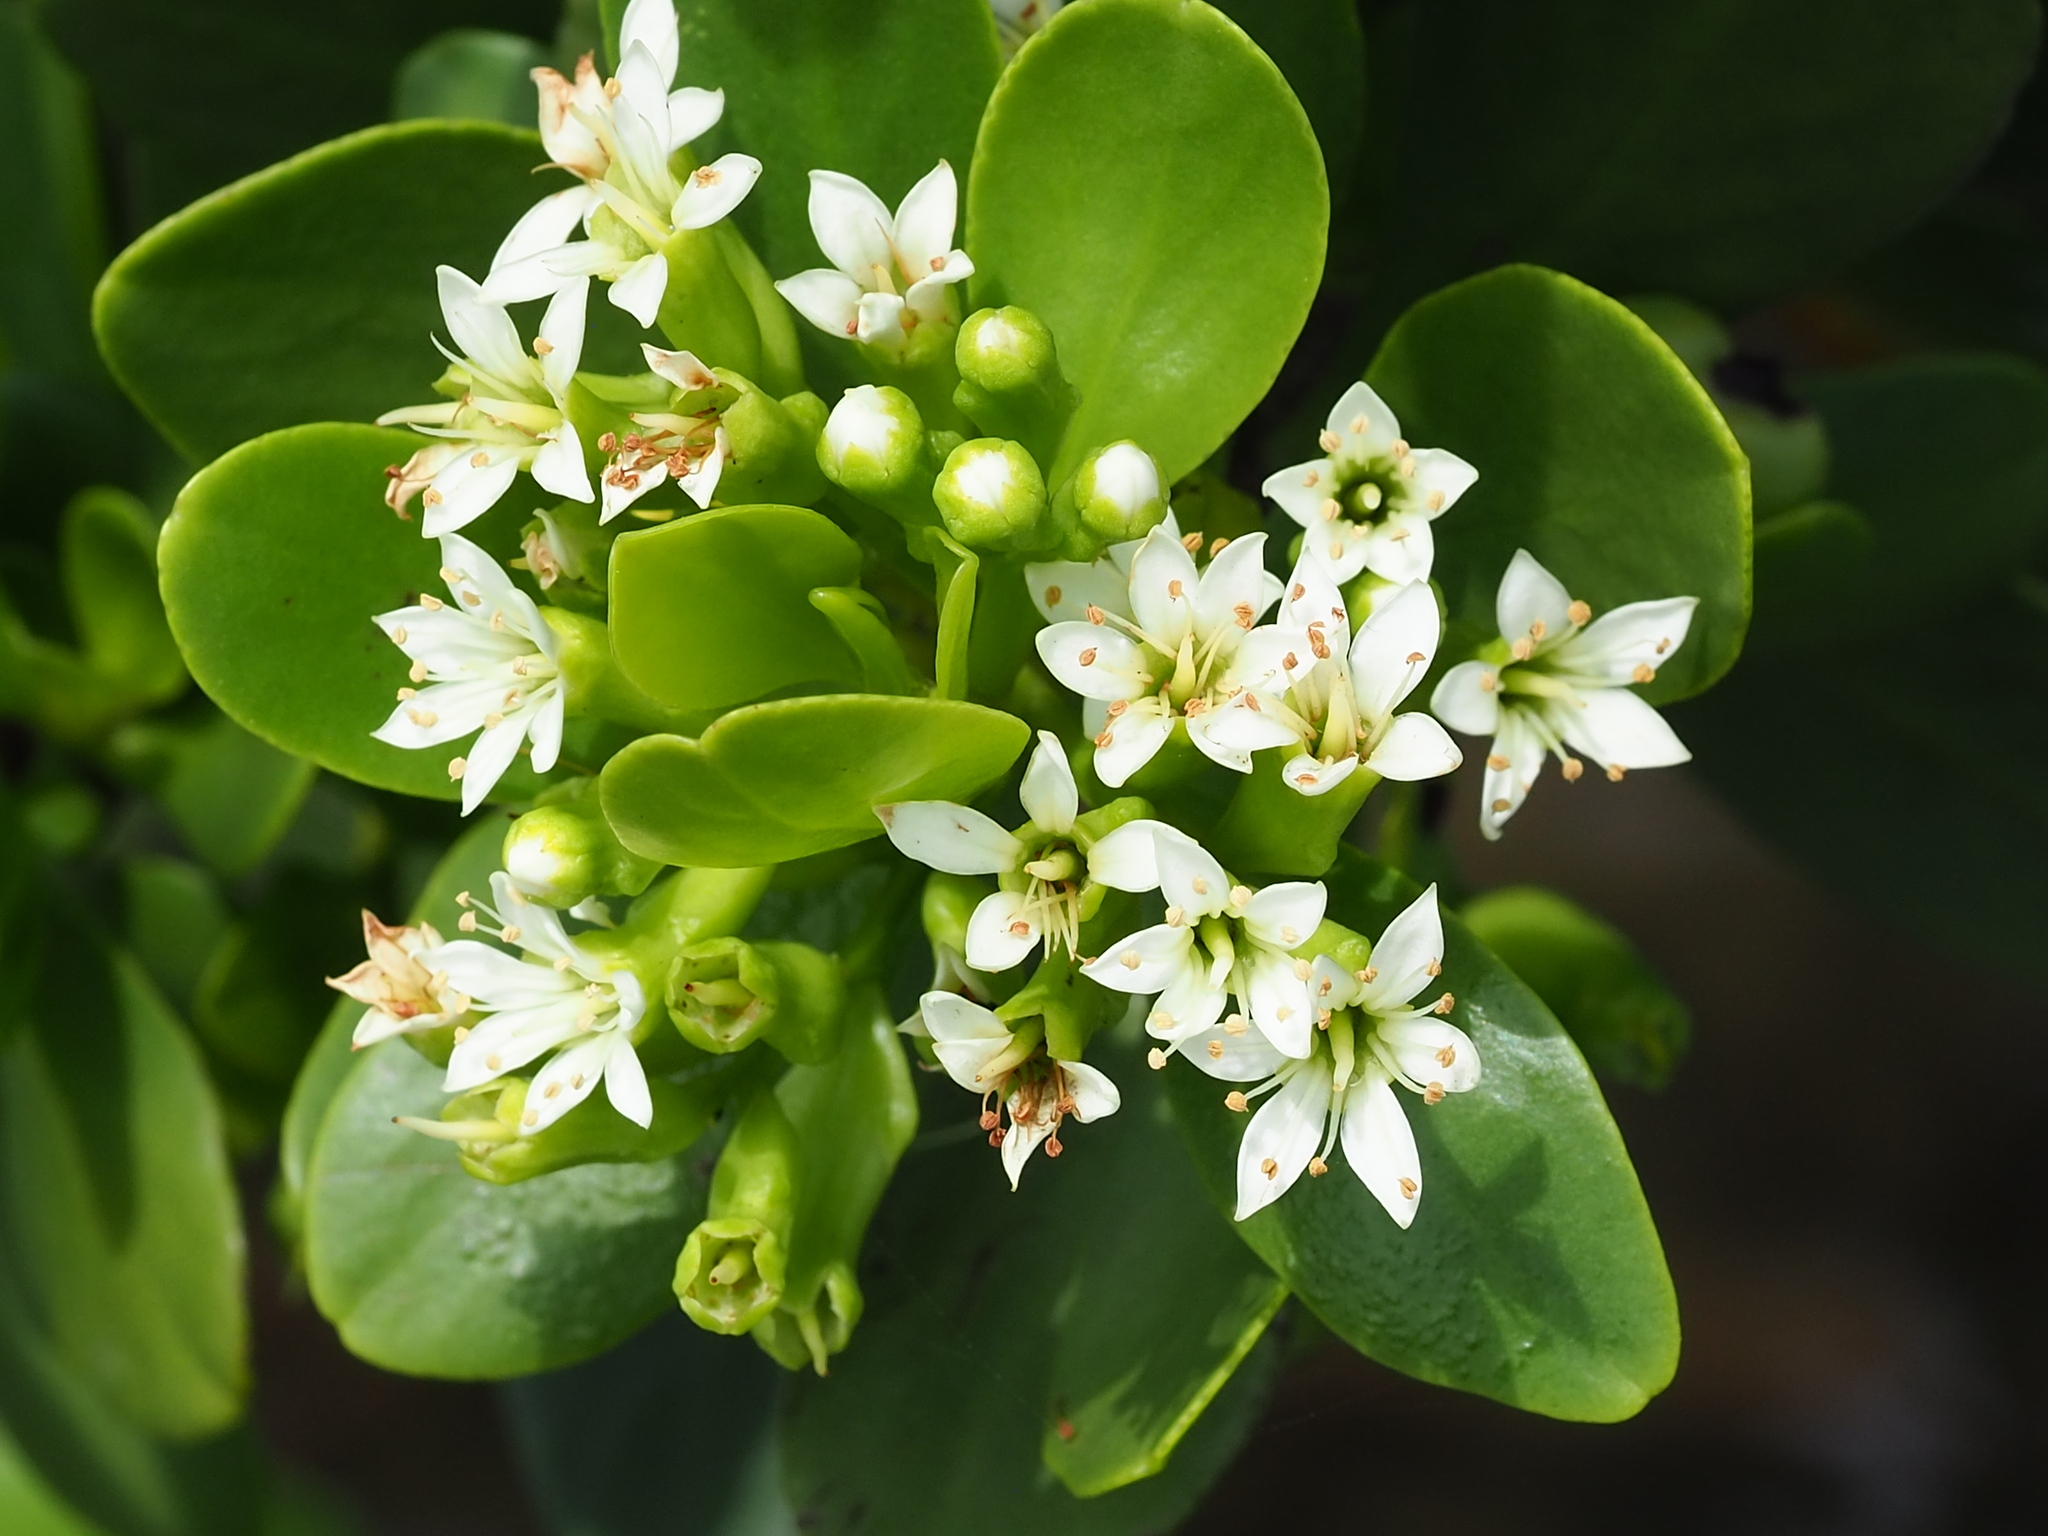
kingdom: Plantae
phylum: Tracheophyta
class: Magnoliopsida
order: Myrtales
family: Combretaceae
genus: Lumnitzera
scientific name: Lumnitzera racemosa
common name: White-flowered black mangrove
